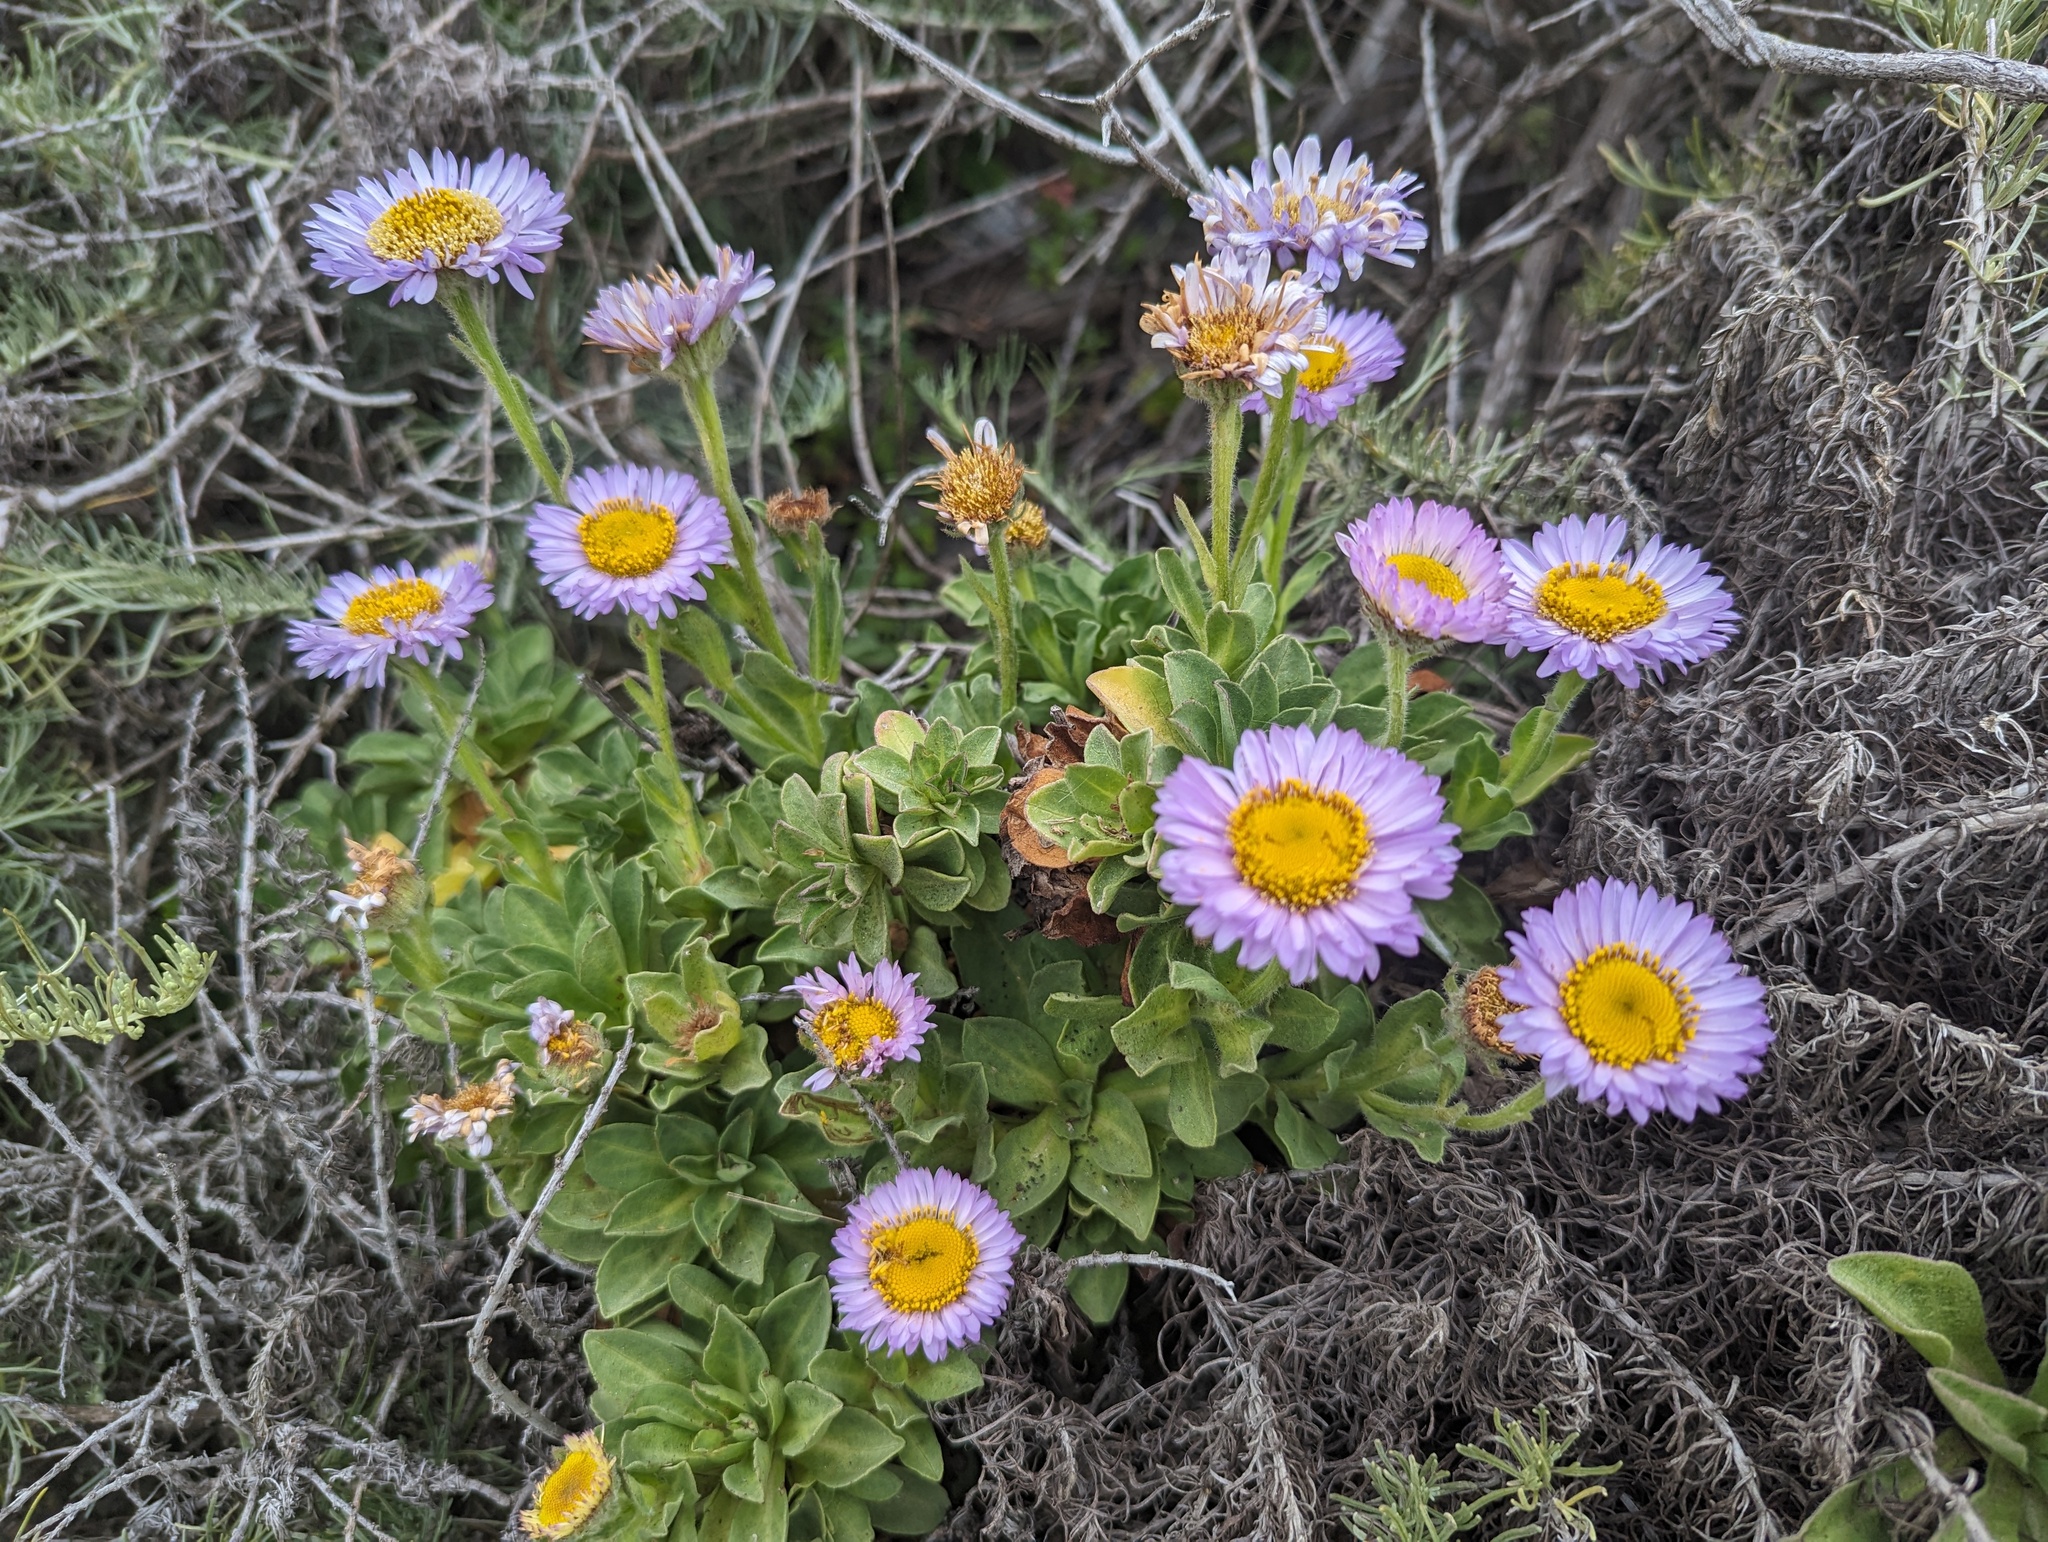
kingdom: Plantae
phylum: Tracheophyta
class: Magnoliopsida
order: Asterales
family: Asteraceae
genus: Erigeron
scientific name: Erigeron glaucus
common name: Seaside daisy
